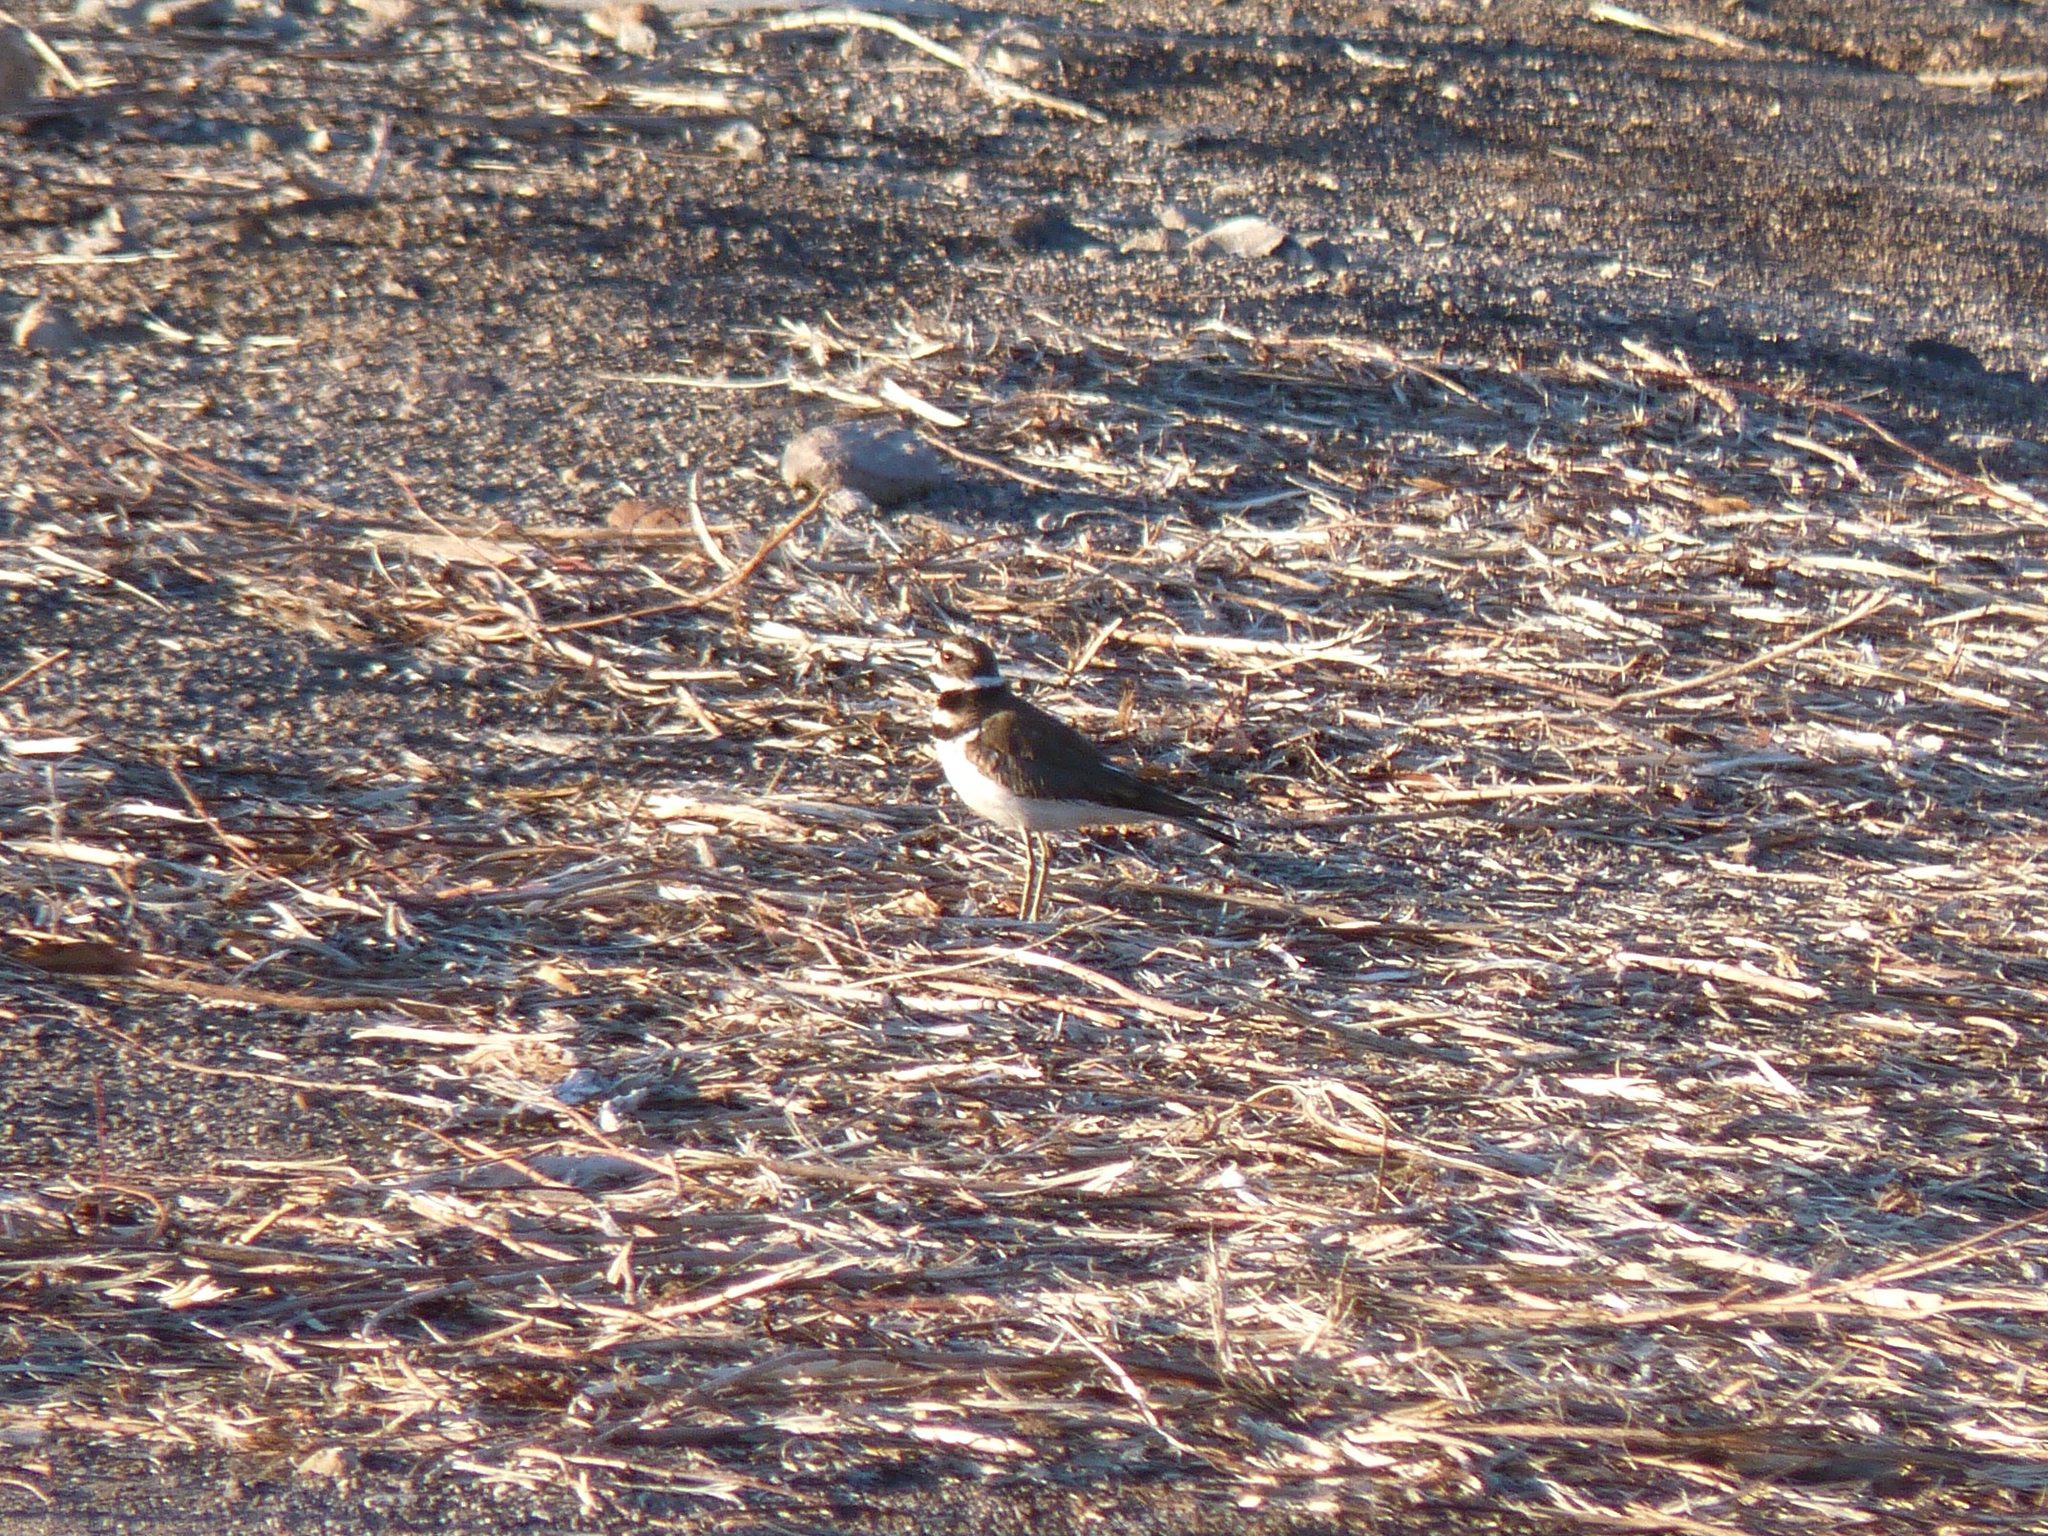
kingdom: Animalia
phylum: Chordata
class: Aves
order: Charadriiformes
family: Charadriidae
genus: Charadrius
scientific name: Charadrius vociferus
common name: Killdeer
